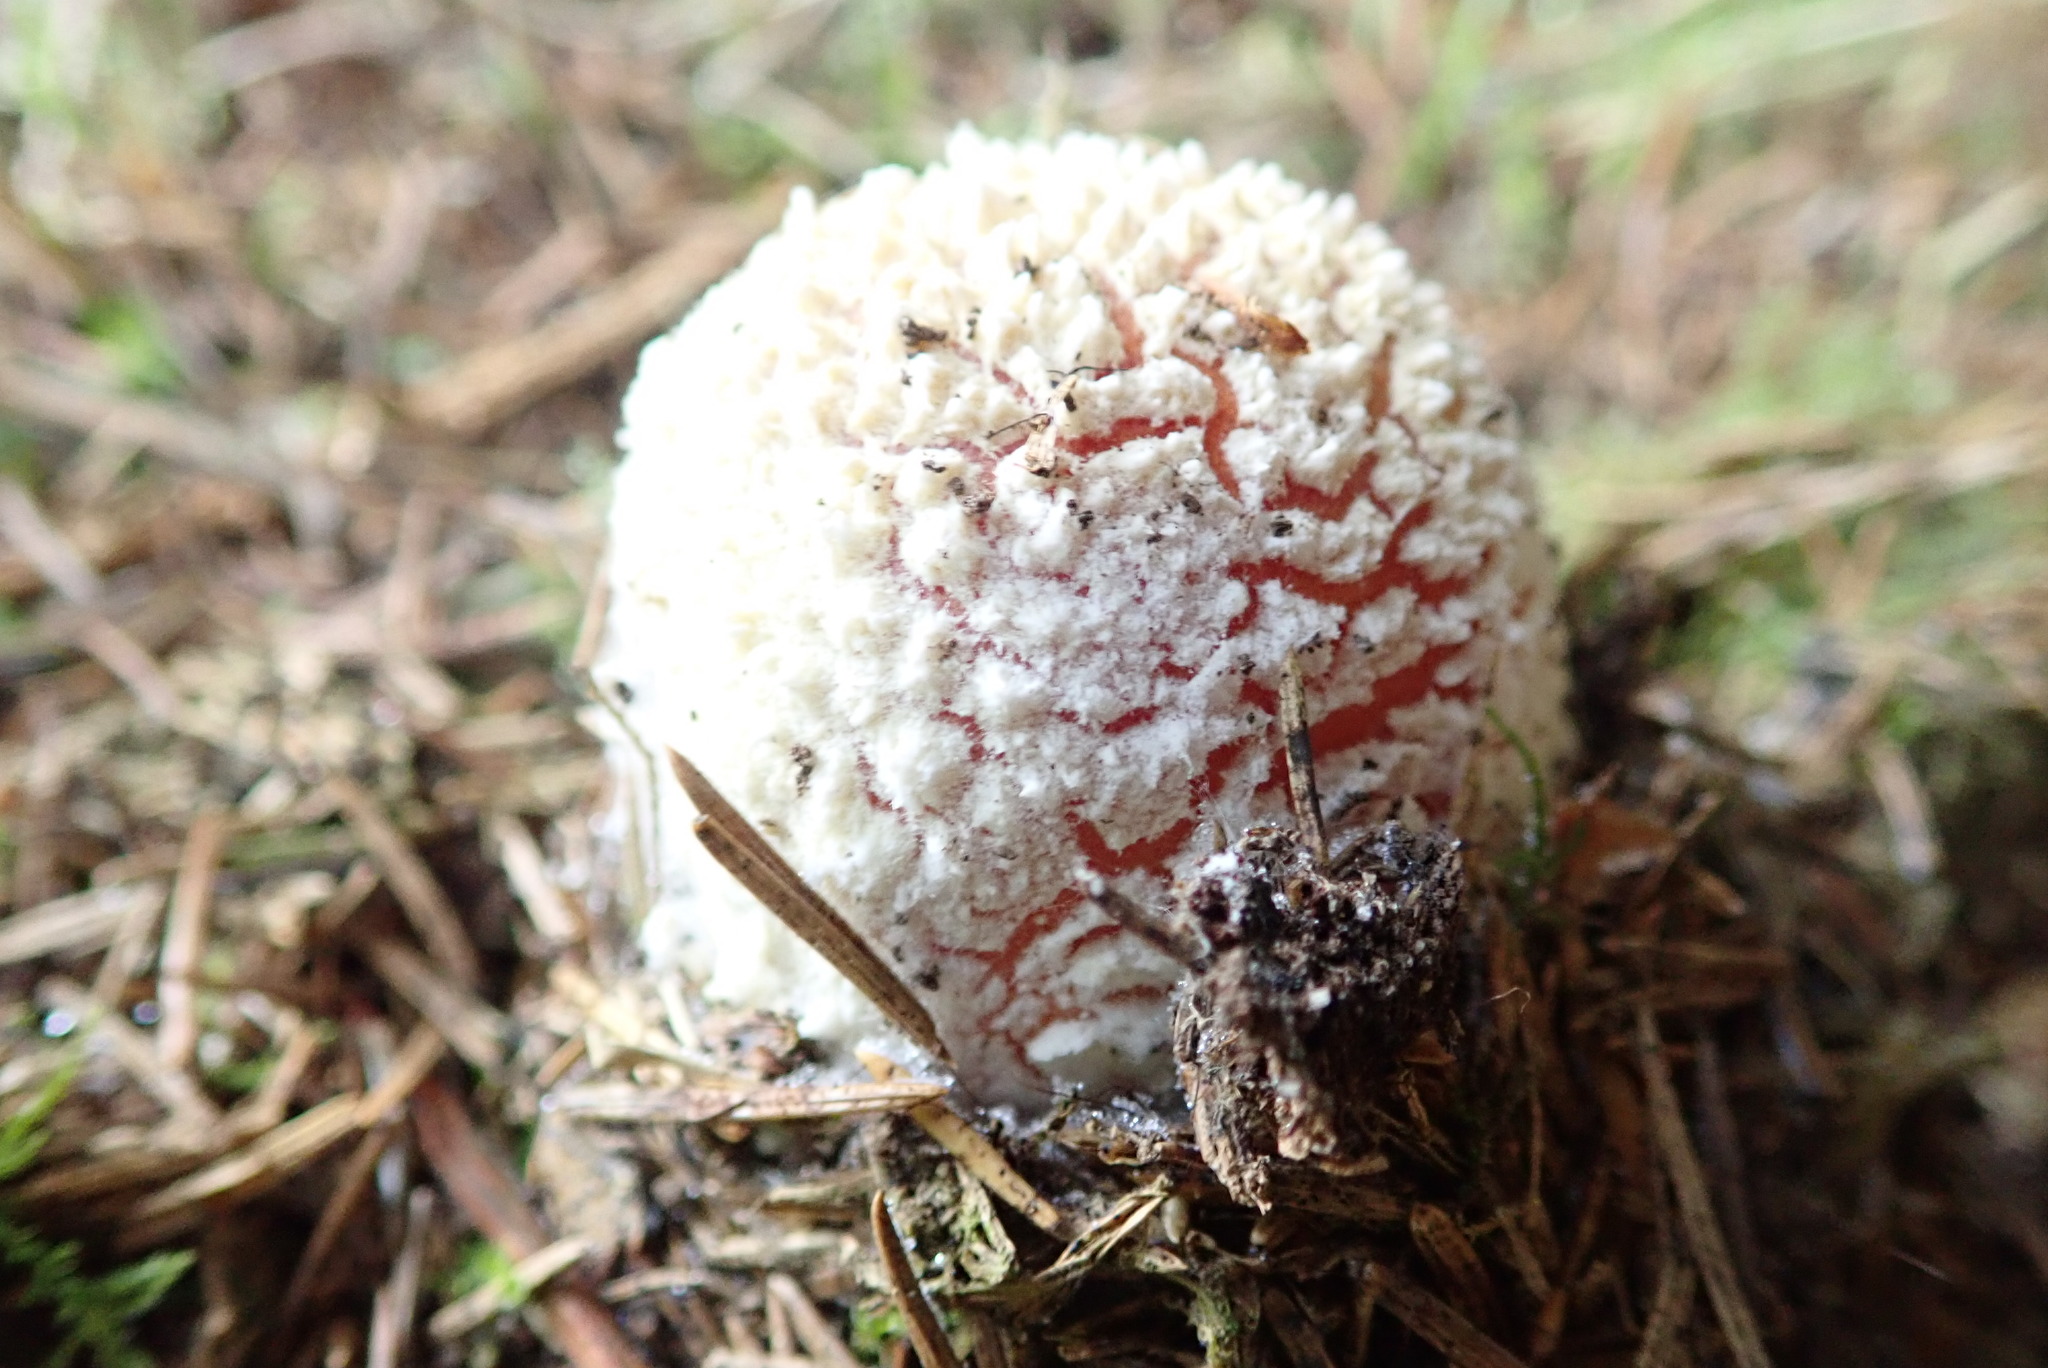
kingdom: Fungi
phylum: Basidiomycota
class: Agaricomycetes
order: Agaricales
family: Amanitaceae
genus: Amanita
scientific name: Amanita muscaria
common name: Fly agaric
